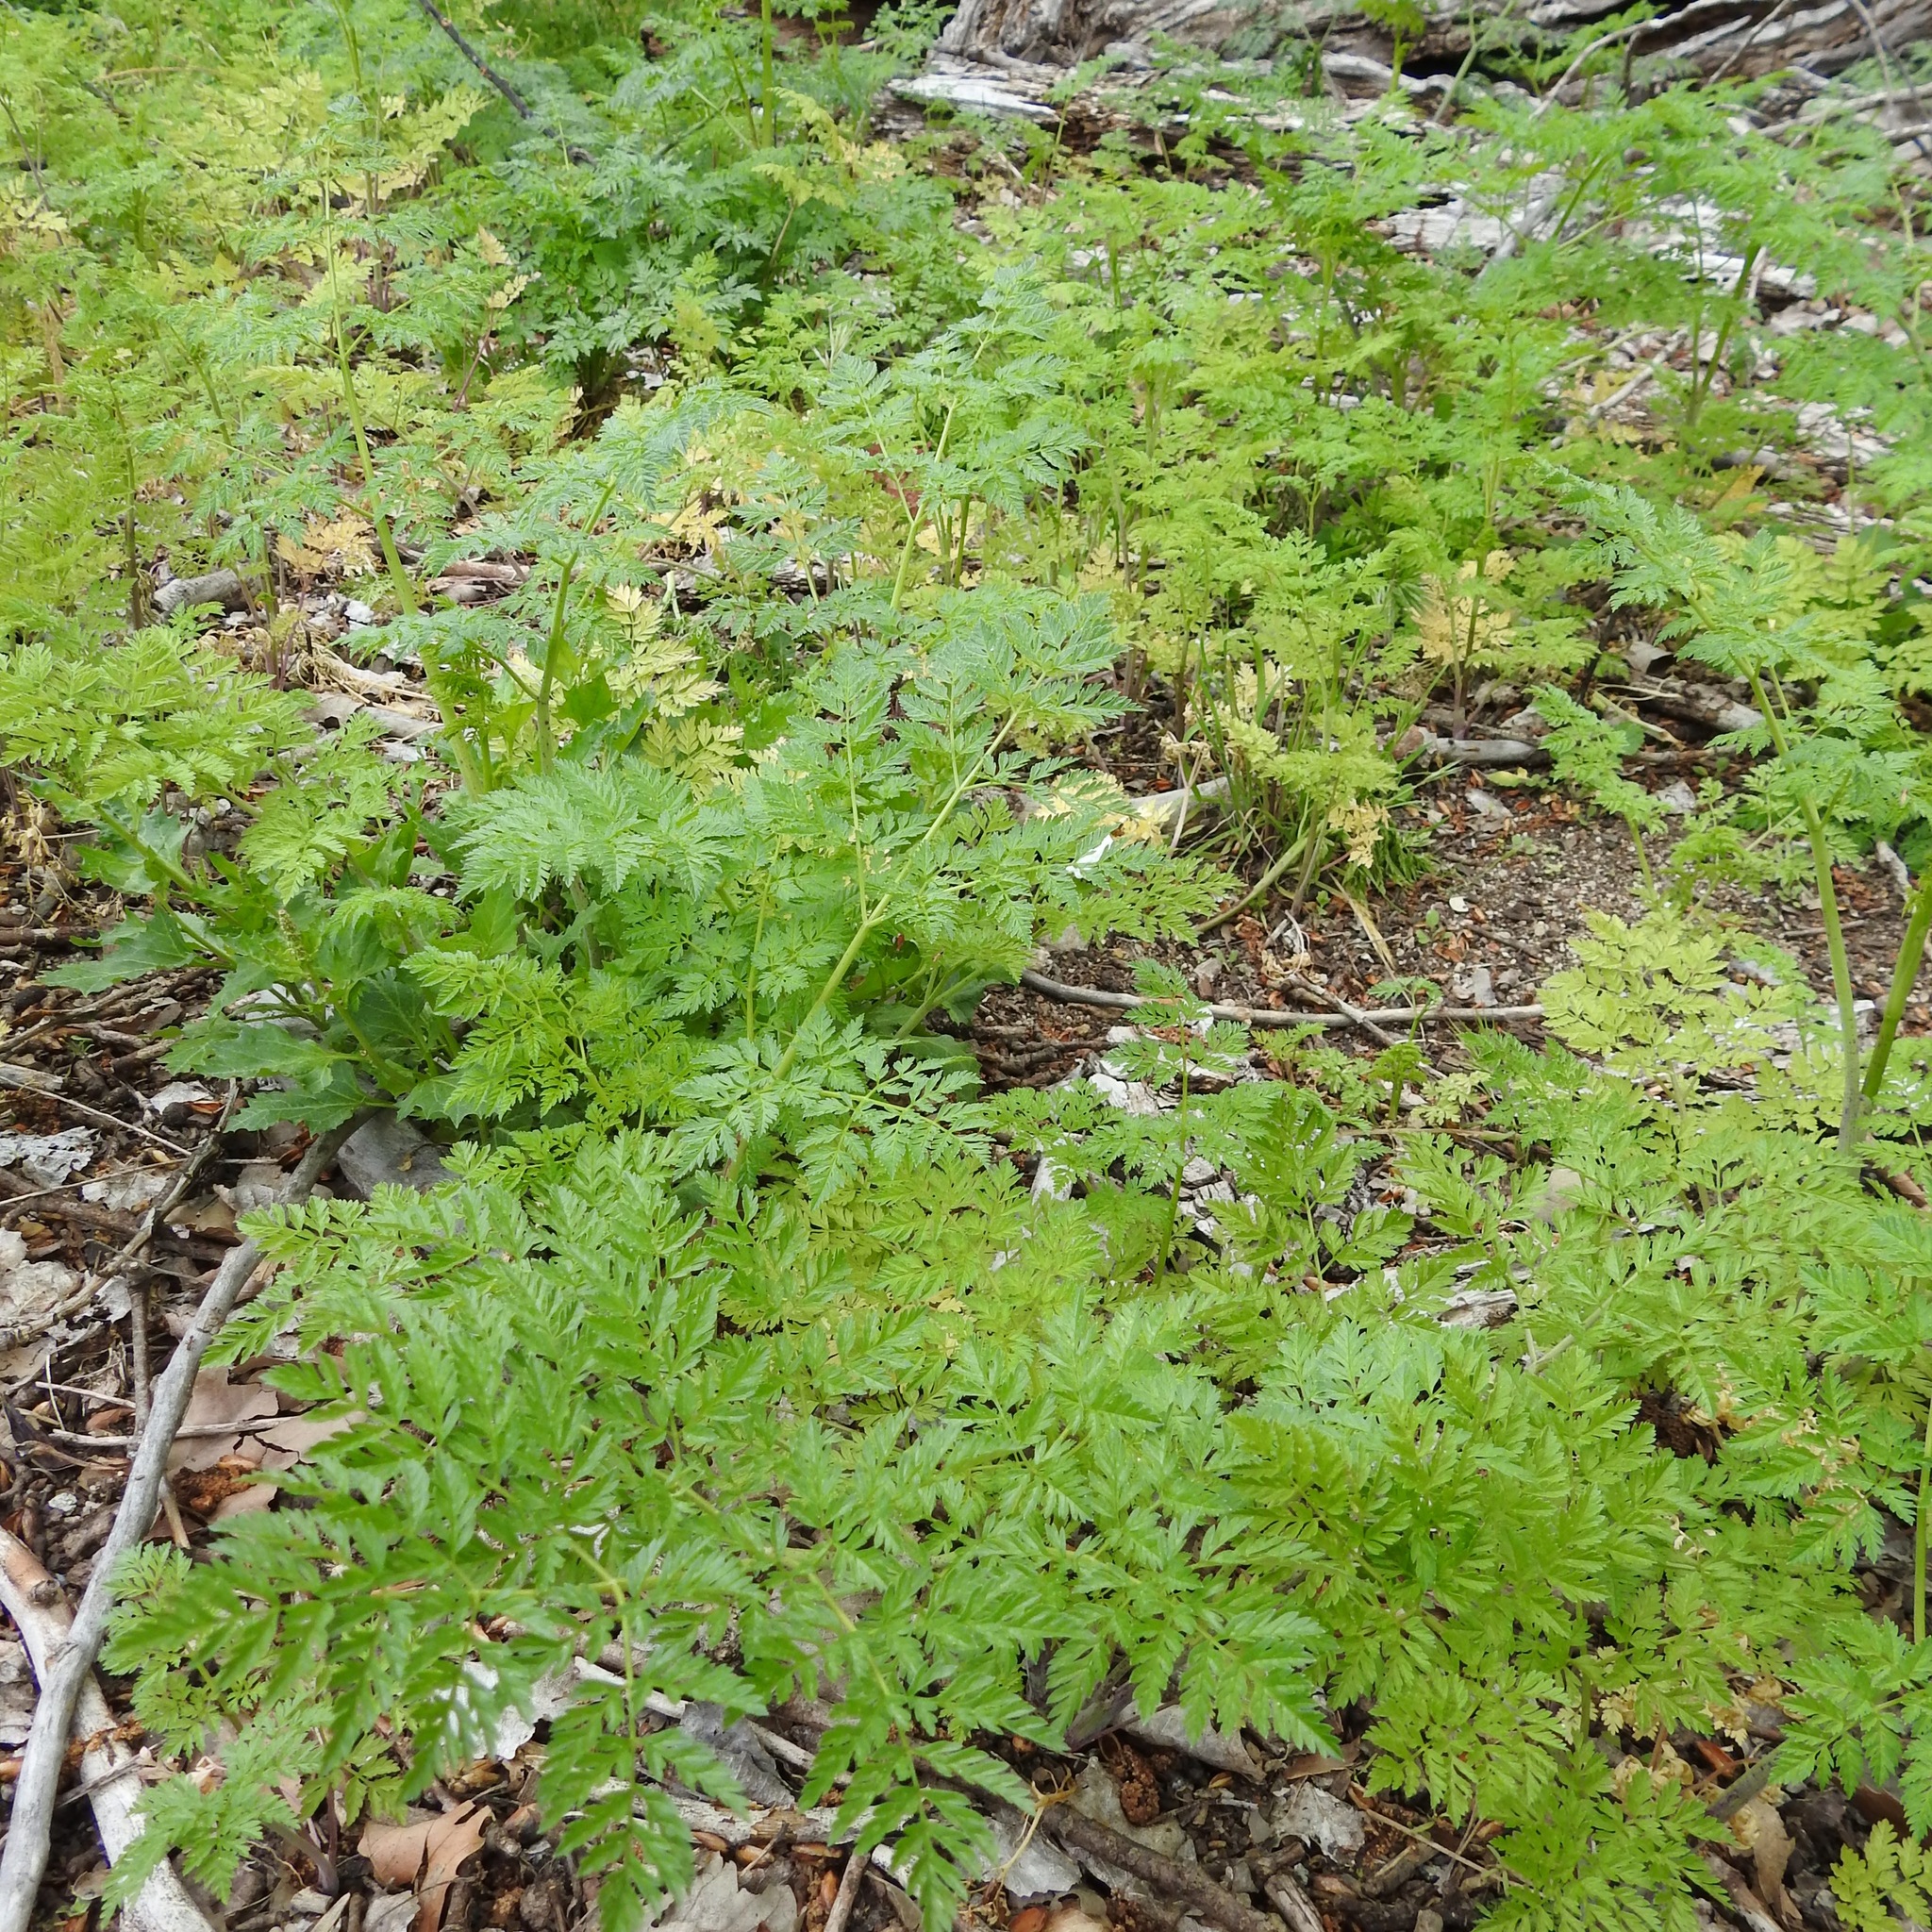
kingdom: Plantae
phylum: Tracheophyta
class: Magnoliopsida
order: Apiales
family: Apiaceae
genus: Conium
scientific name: Conium maculatum
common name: Hemlock
